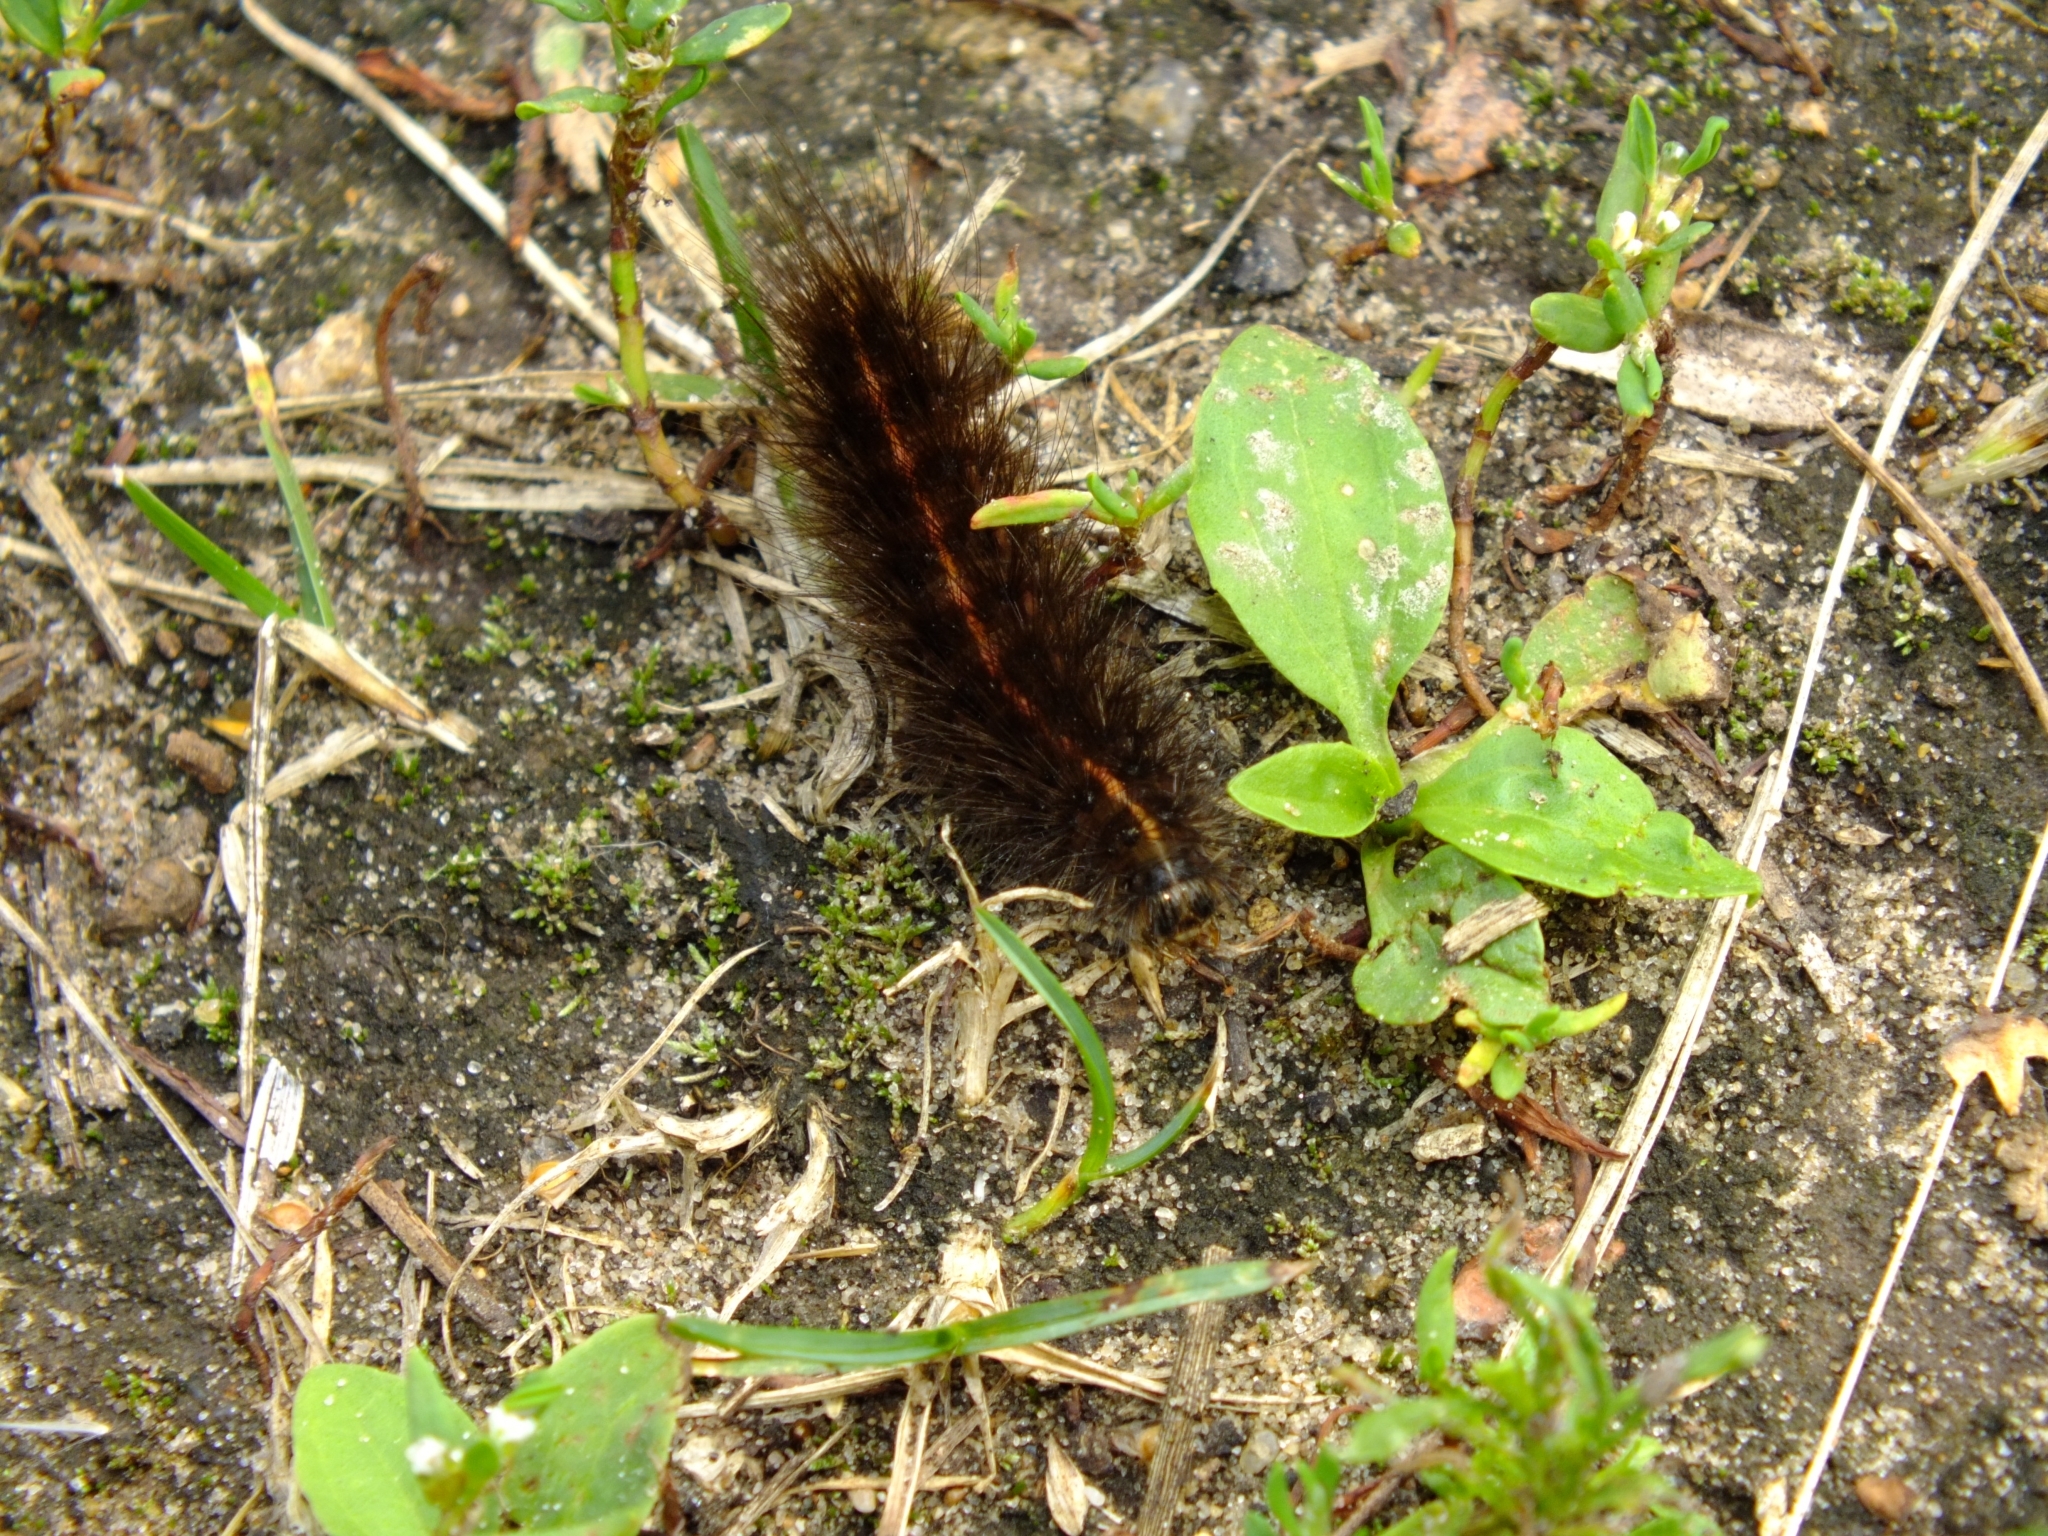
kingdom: Animalia
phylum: Arthropoda
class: Insecta
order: Lepidoptera
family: Erebidae
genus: Spilosoma
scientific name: Spilosoma lubricipeda
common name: White ermine
